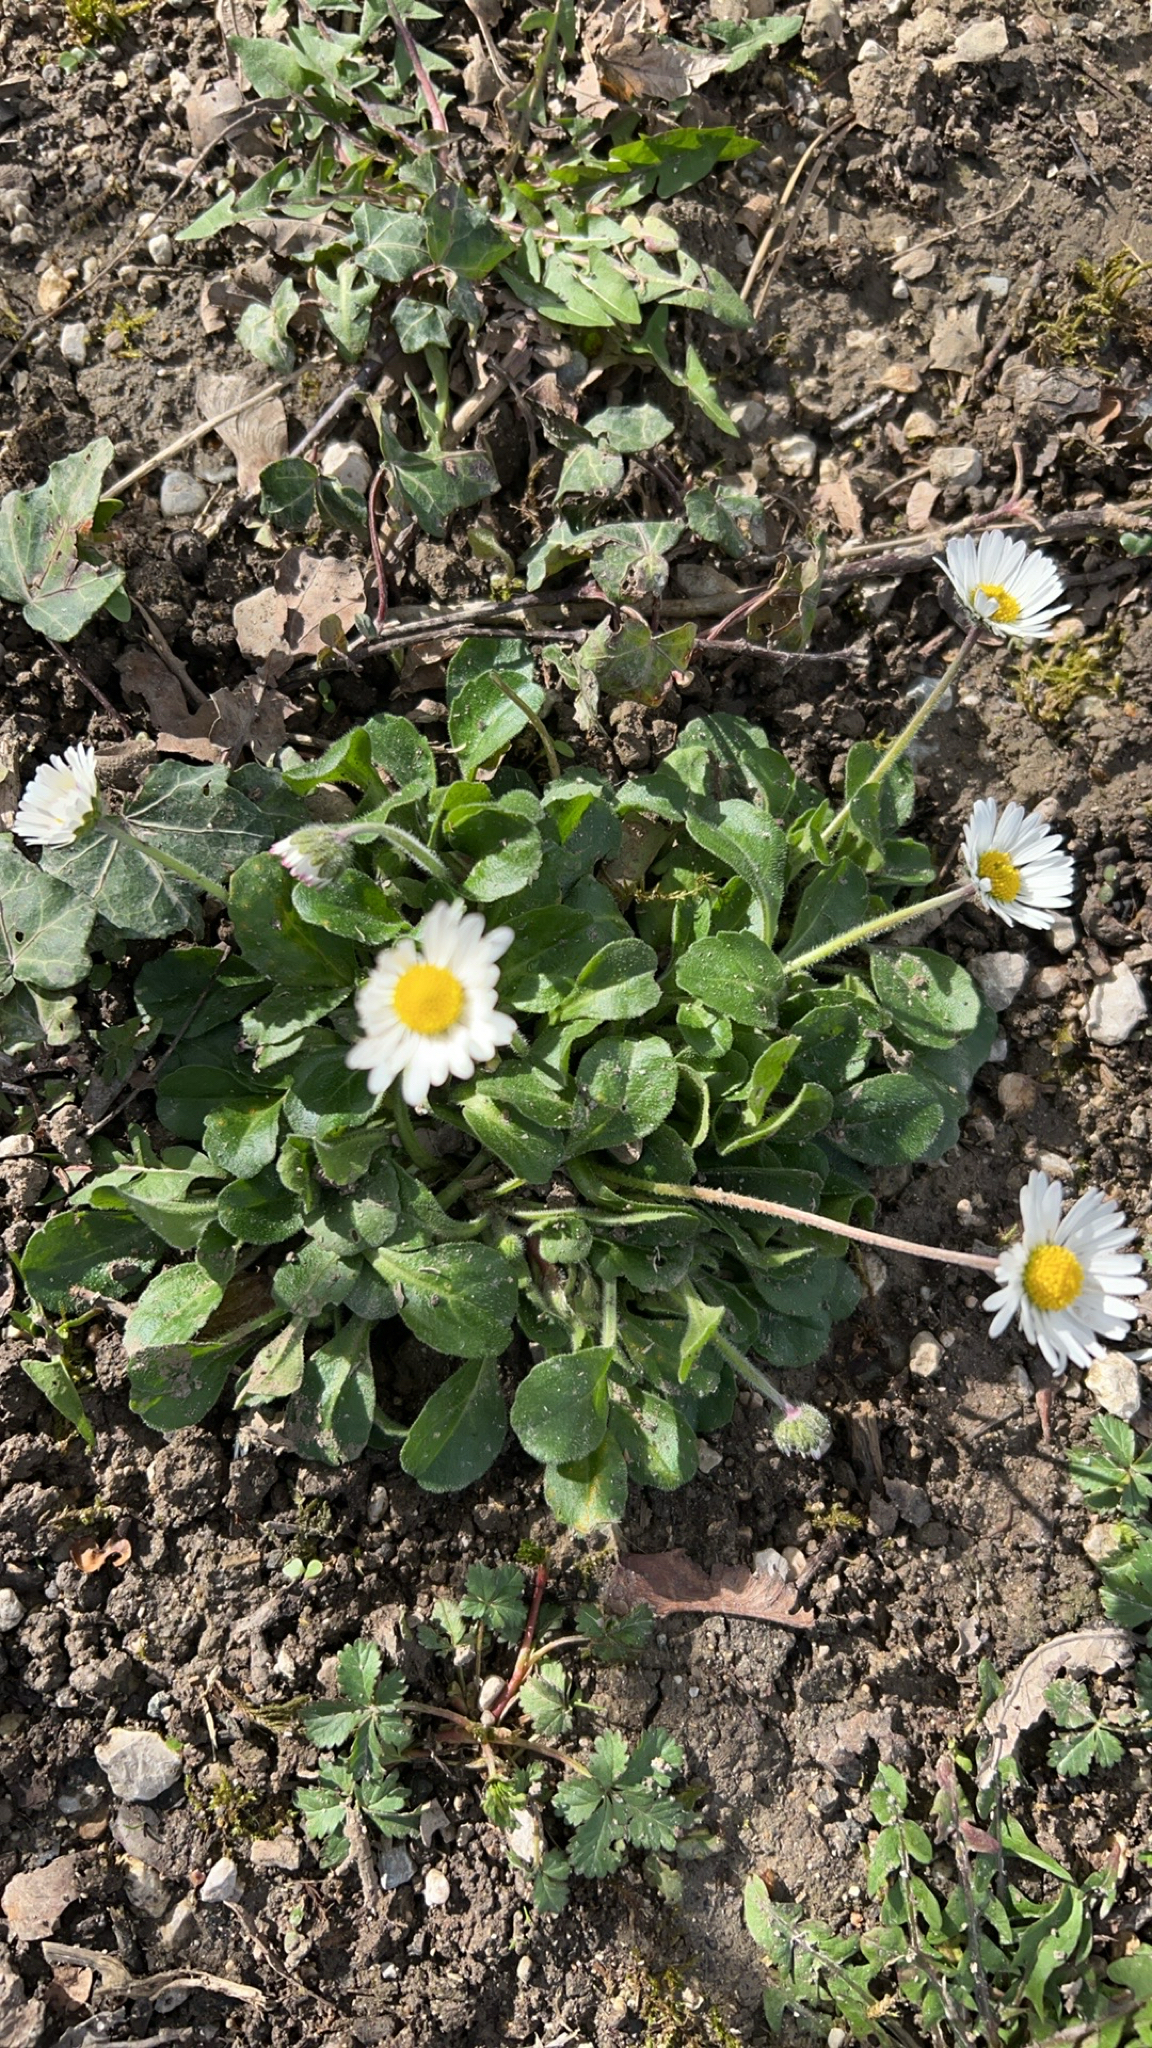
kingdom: Plantae
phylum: Tracheophyta
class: Magnoliopsida
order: Asterales
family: Asteraceae
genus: Bellis
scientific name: Bellis perennis
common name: Lawndaisy
